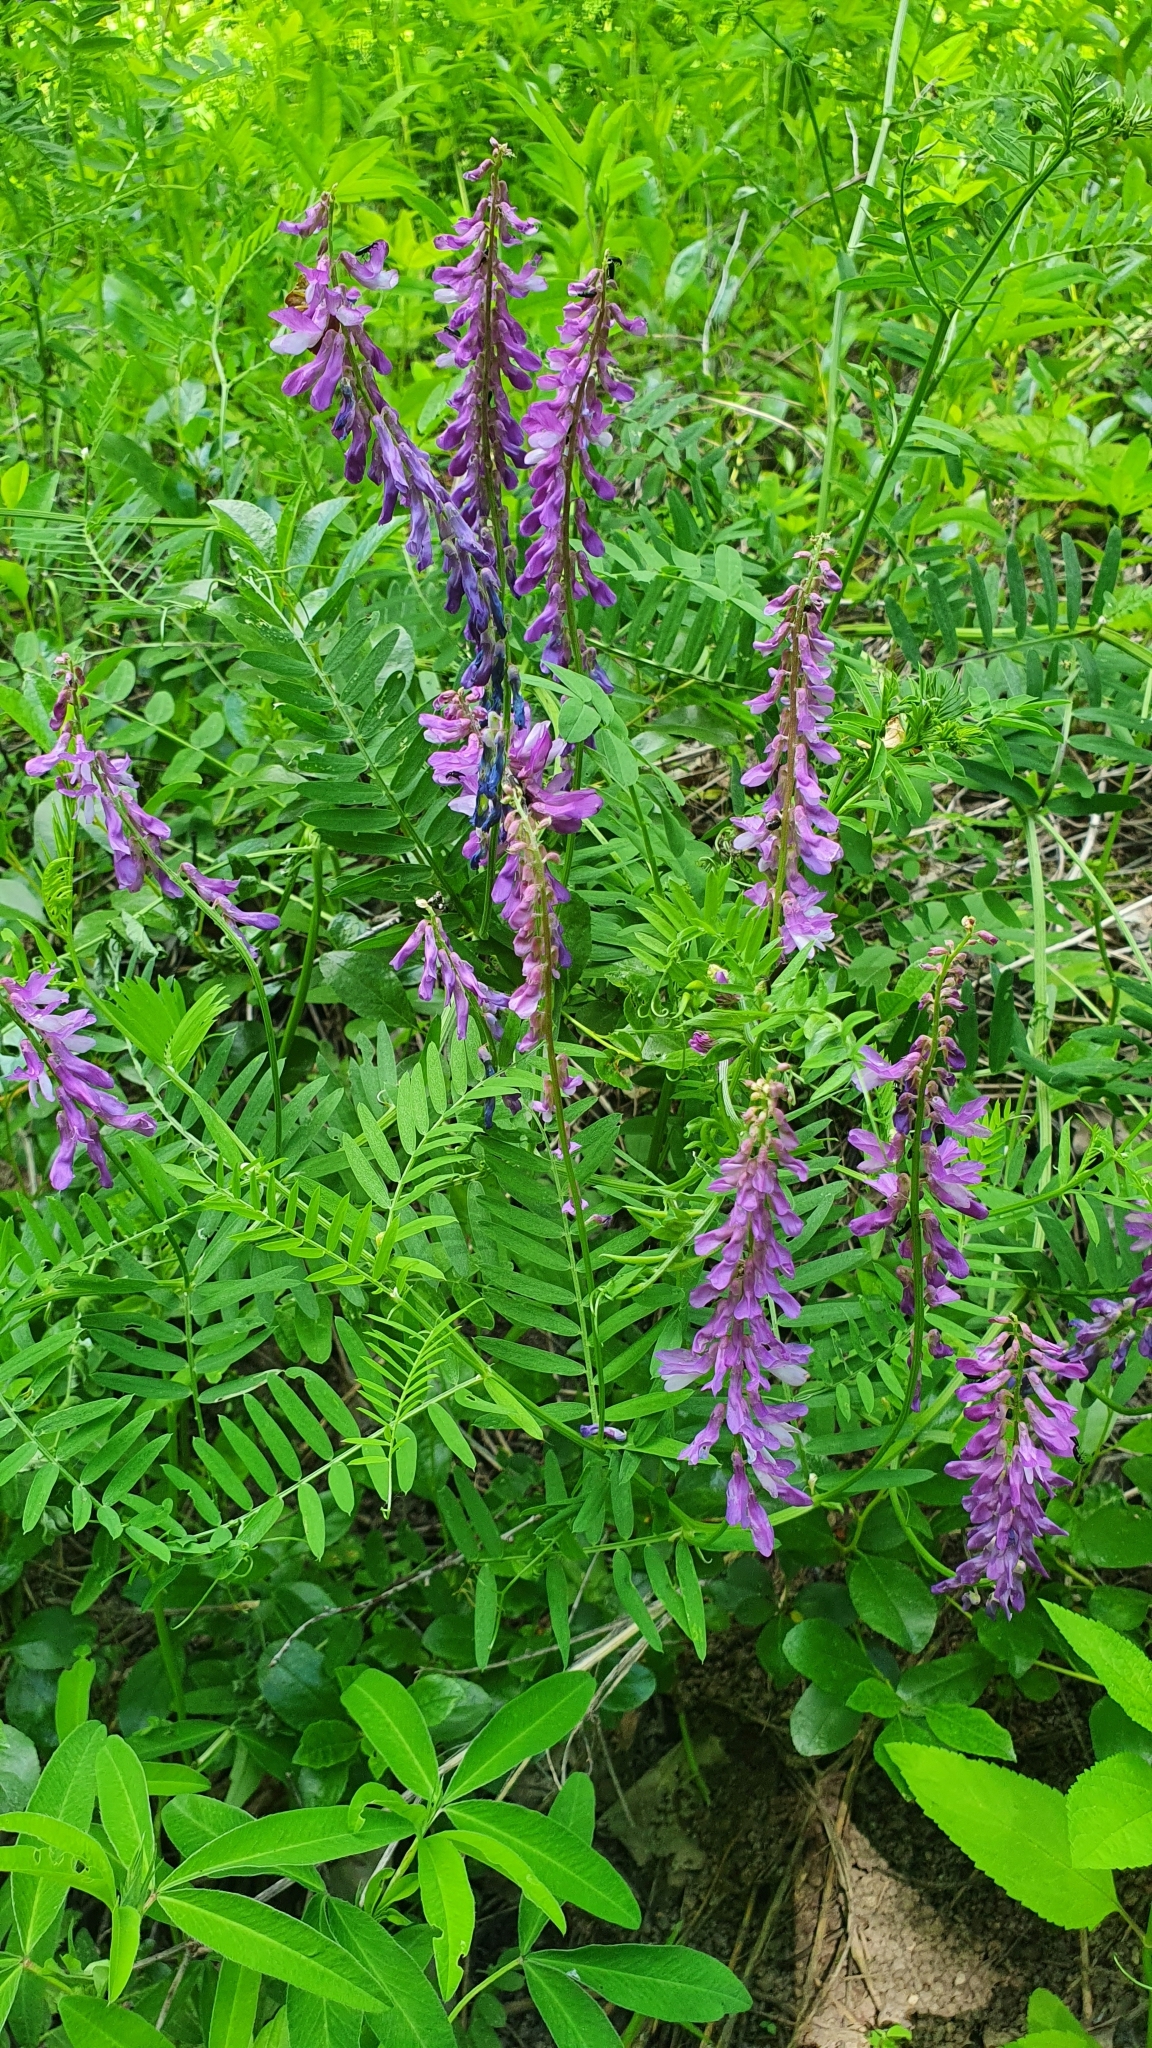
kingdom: Plantae
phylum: Tracheophyta
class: Magnoliopsida
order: Fabales
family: Fabaceae
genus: Vicia
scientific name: Vicia tenuifolia
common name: Fine-leaved vetch
